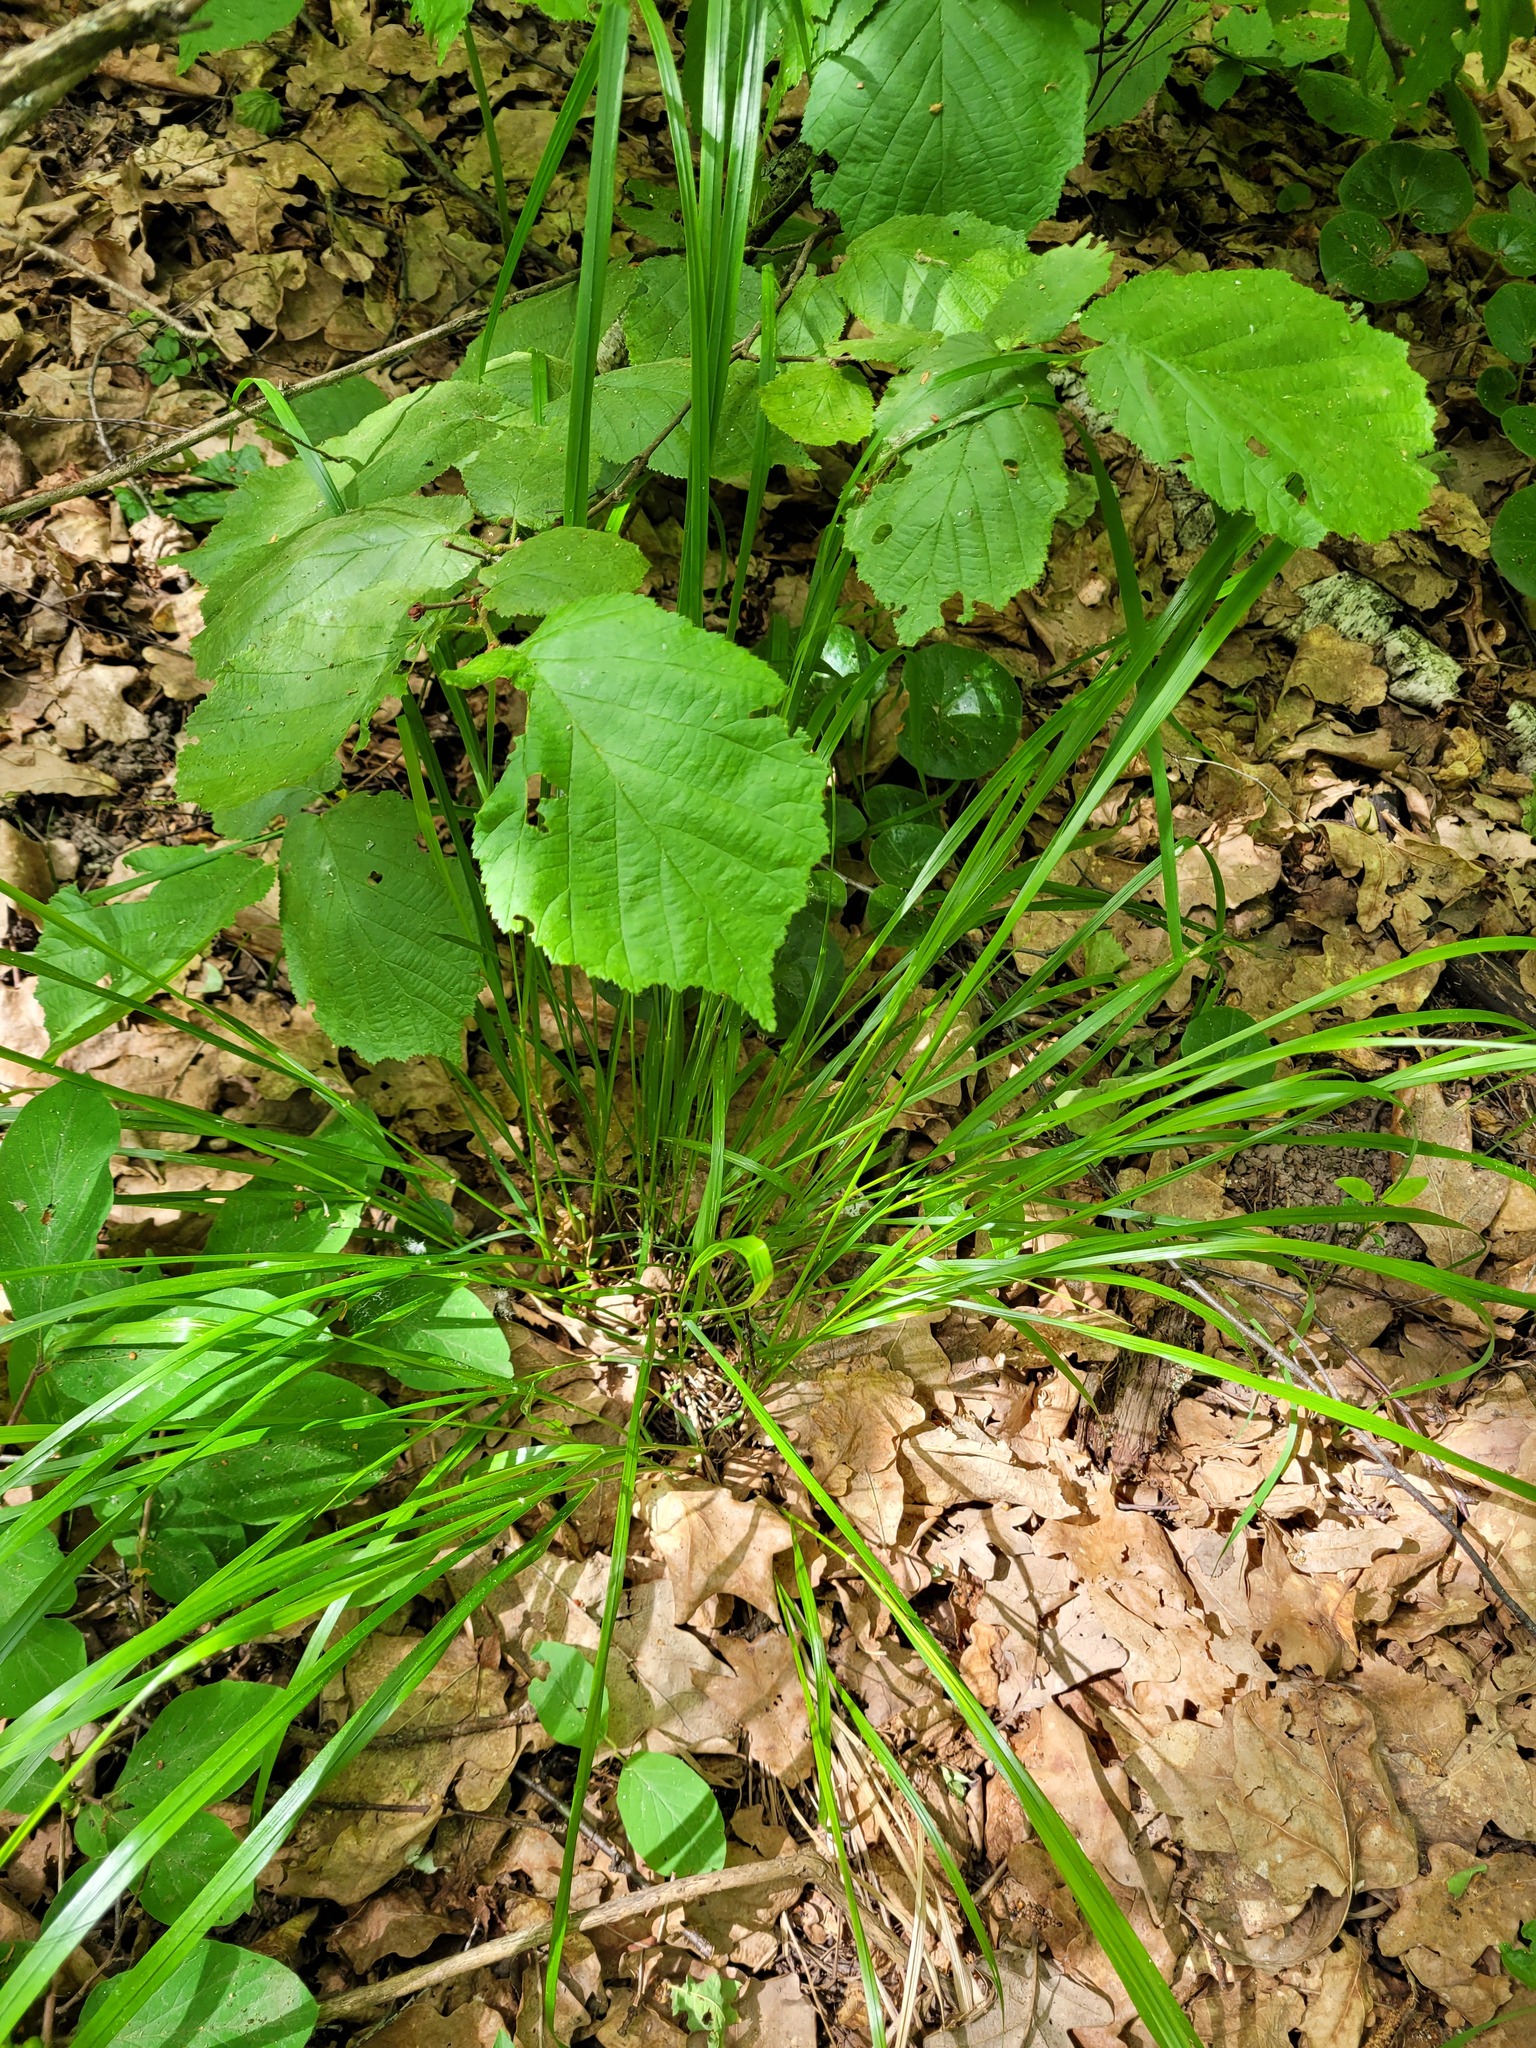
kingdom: Plantae
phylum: Tracheophyta
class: Liliopsida
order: Poales
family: Poaceae
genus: Calamagrostis
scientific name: Calamagrostis arundinacea
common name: Metskastik
